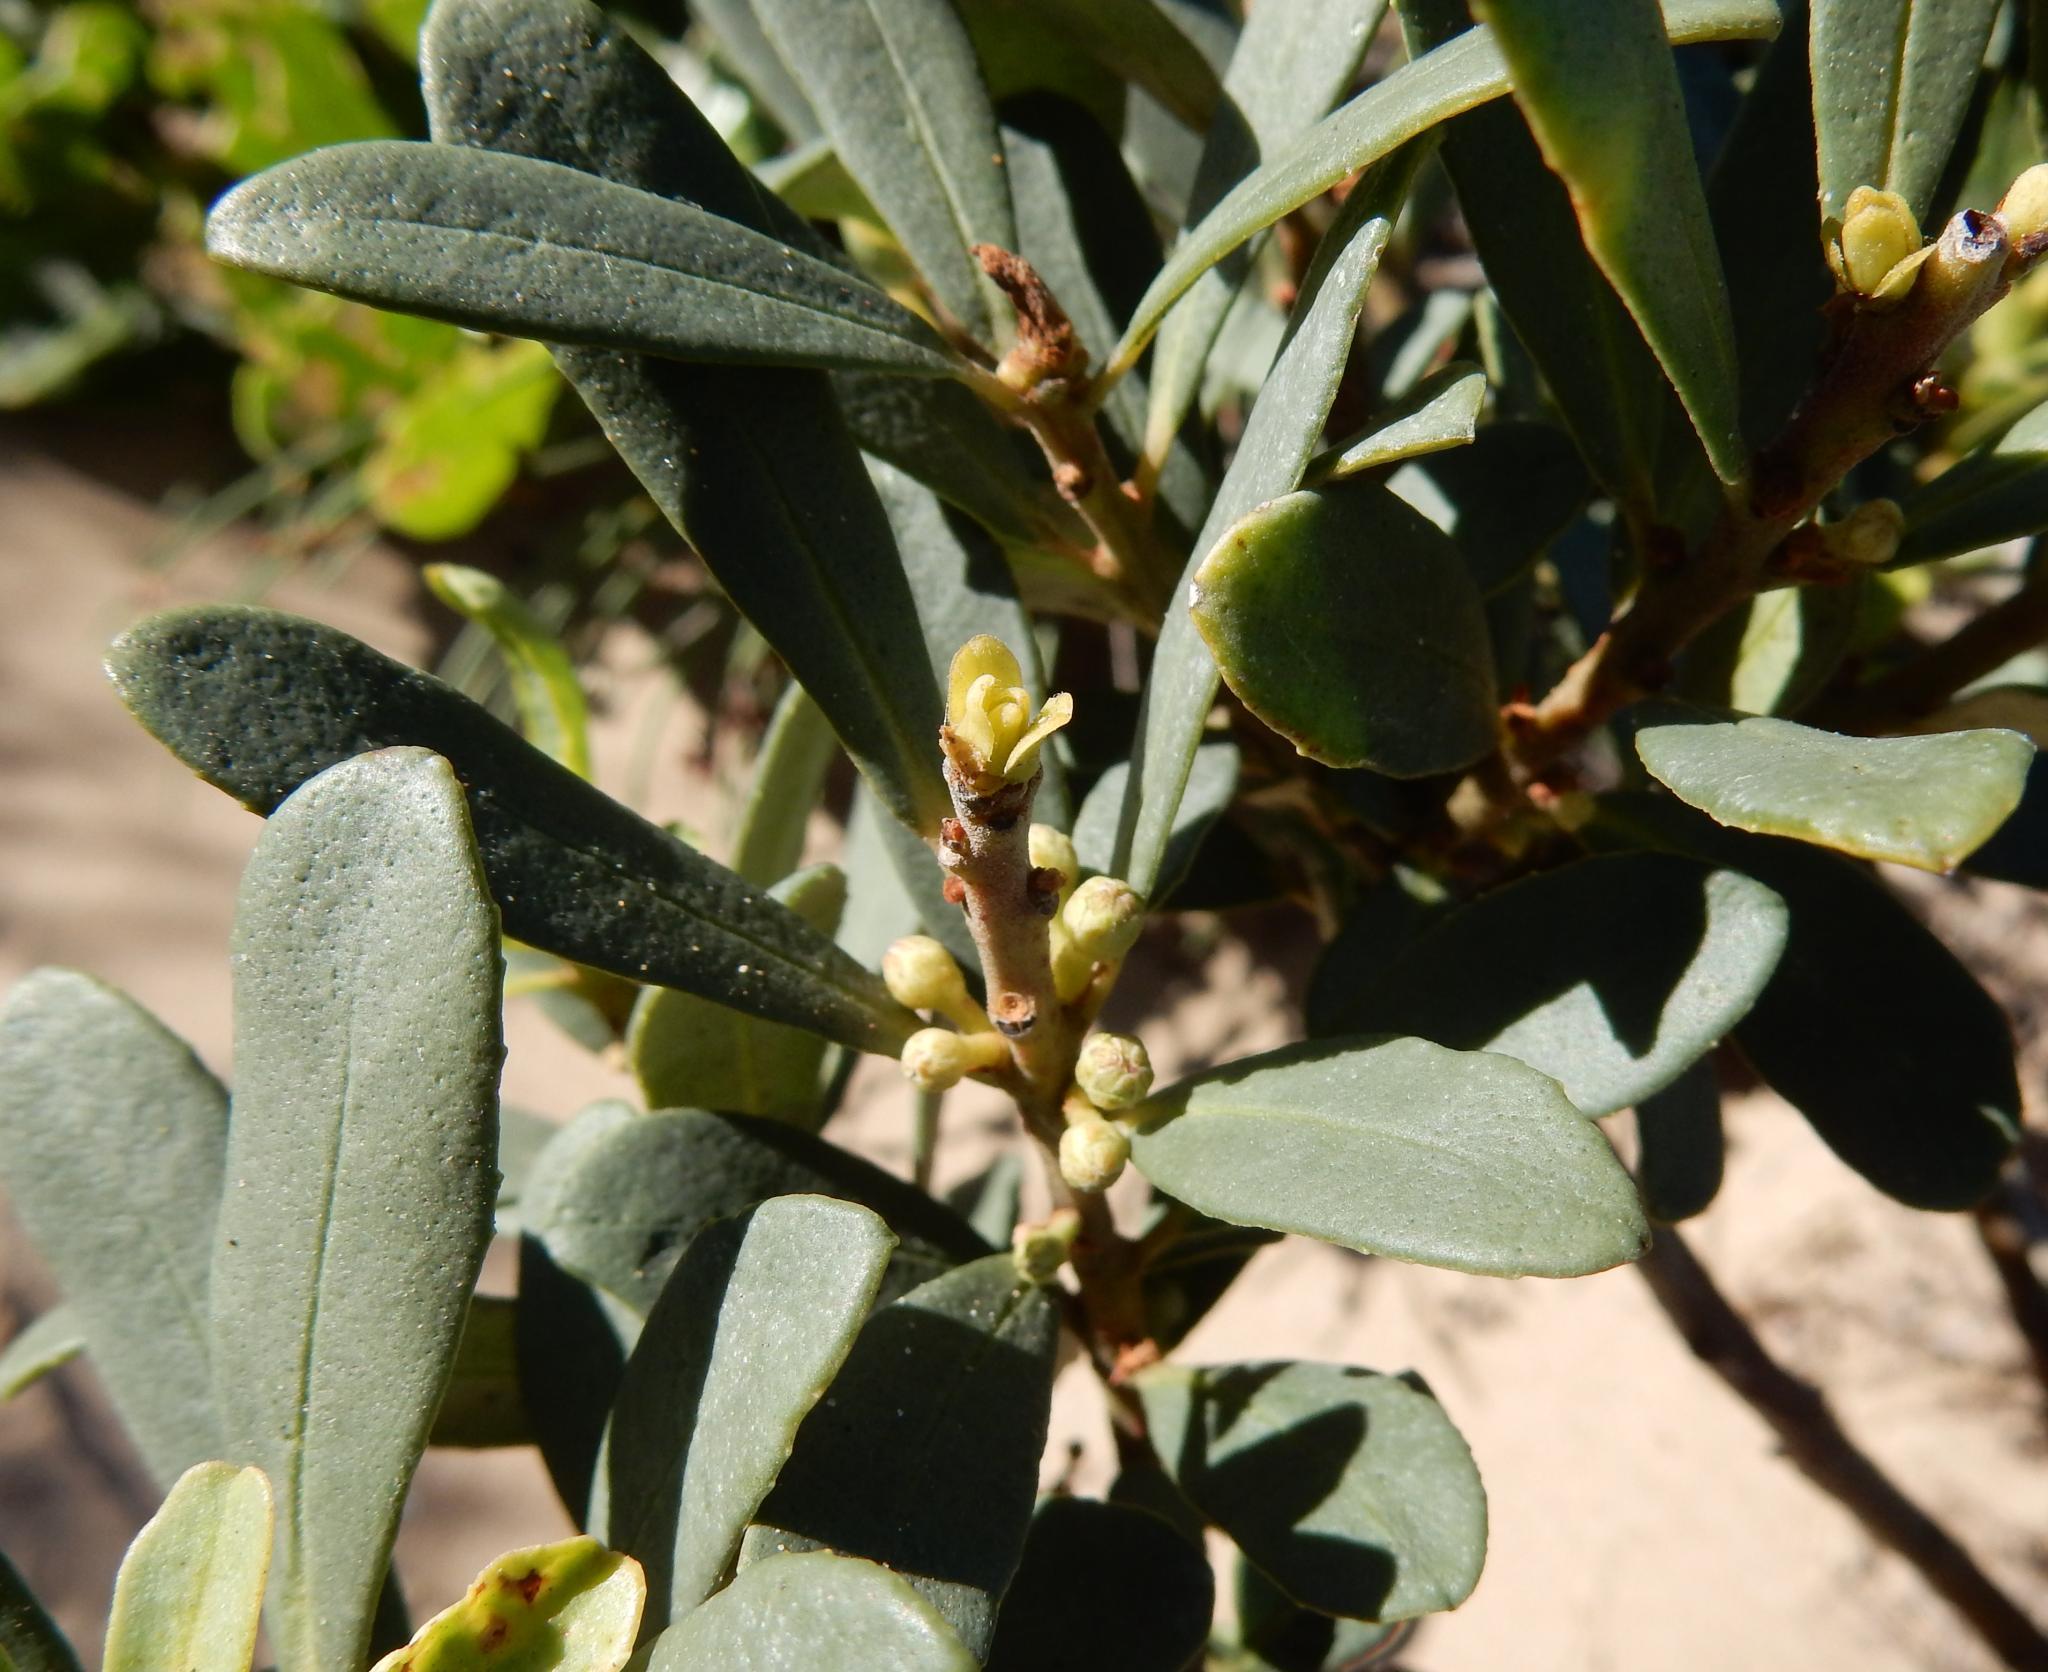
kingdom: Plantae
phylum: Tracheophyta
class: Magnoliopsida
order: Ericales
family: Primulaceae
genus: Myrsine
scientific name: Myrsine gilliana
